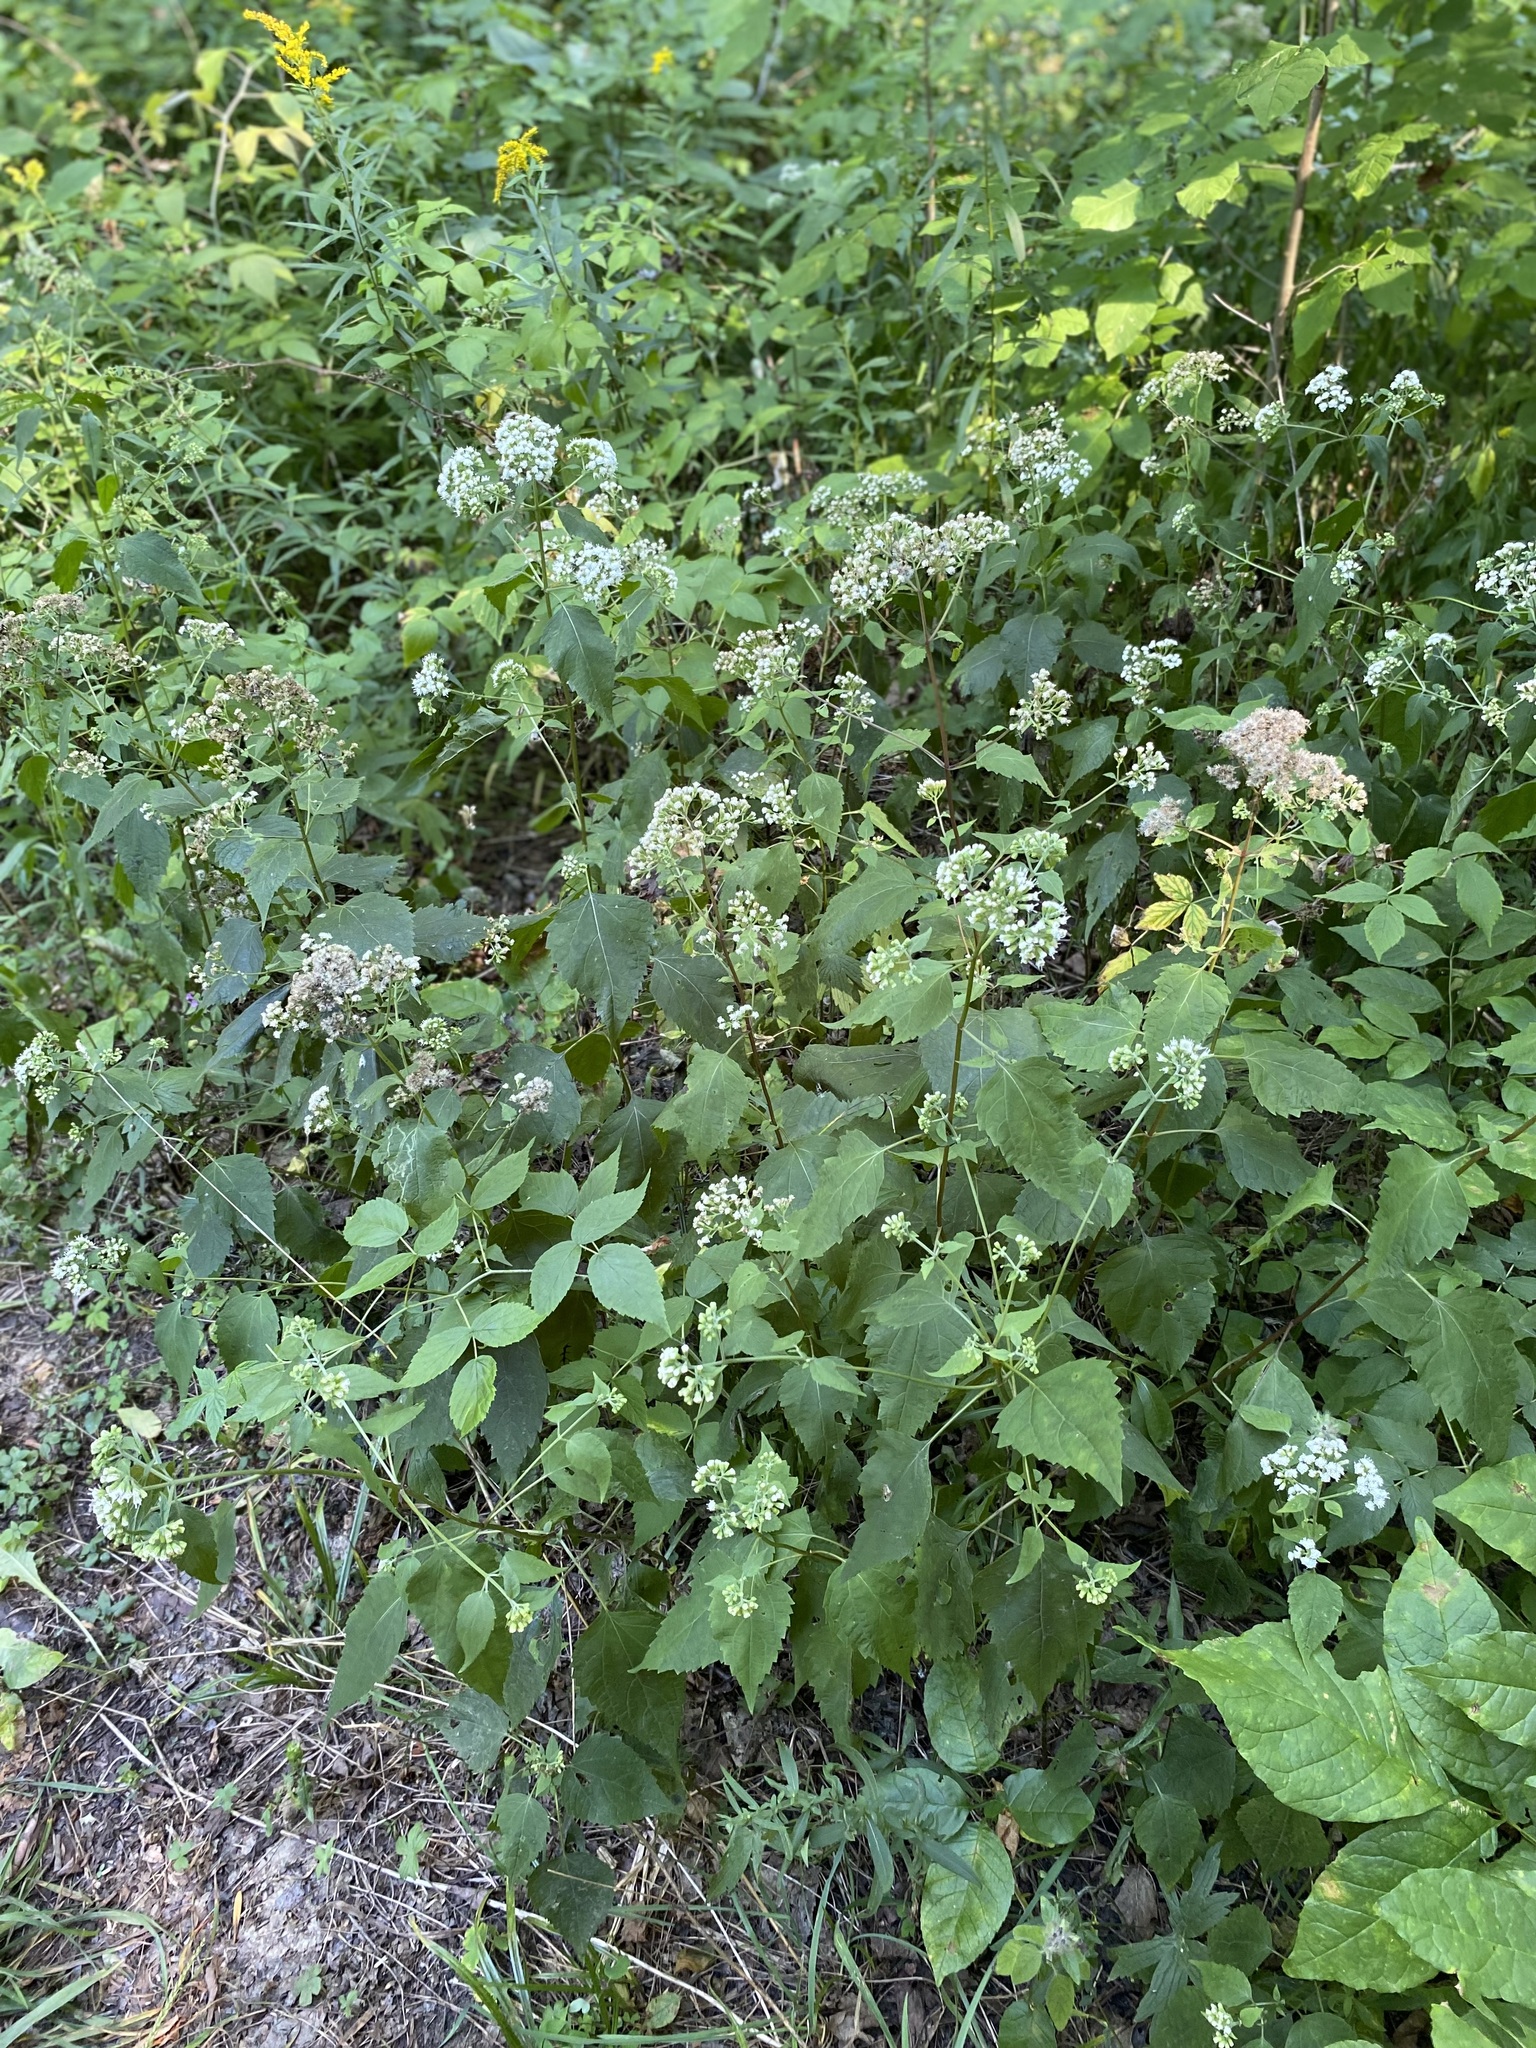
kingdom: Plantae
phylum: Tracheophyta
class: Magnoliopsida
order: Asterales
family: Asteraceae
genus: Ageratina
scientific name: Ageratina altissima
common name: White snakeroot
